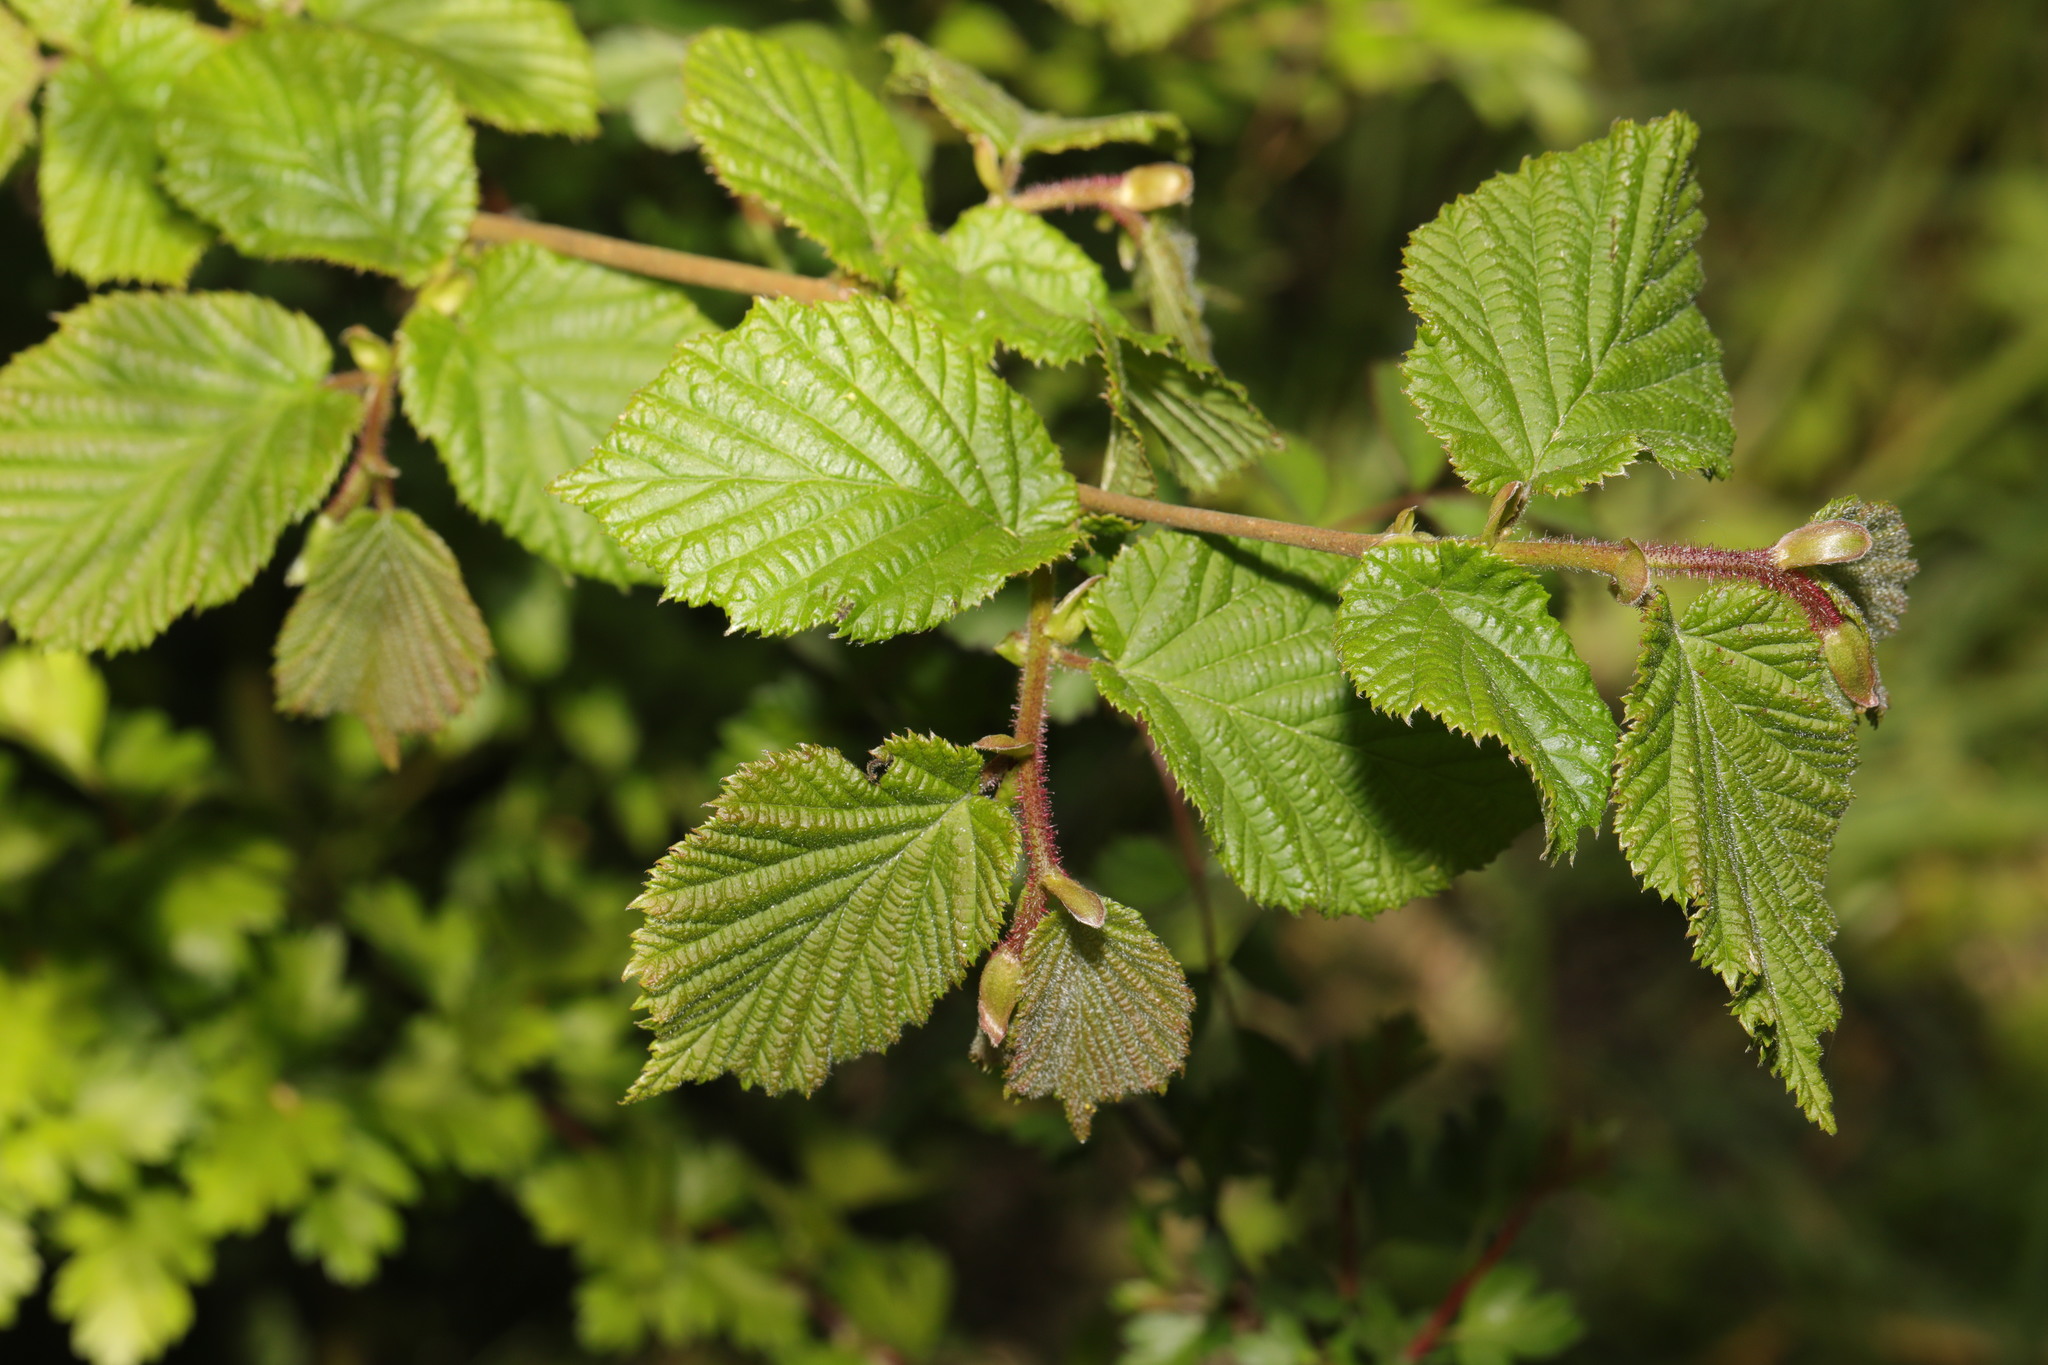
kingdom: Plantae
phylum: Tracheophyta
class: Magnoliopsida
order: Fagales
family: Betulaceae
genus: Corylus
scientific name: Corylus avellana
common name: European hazel
